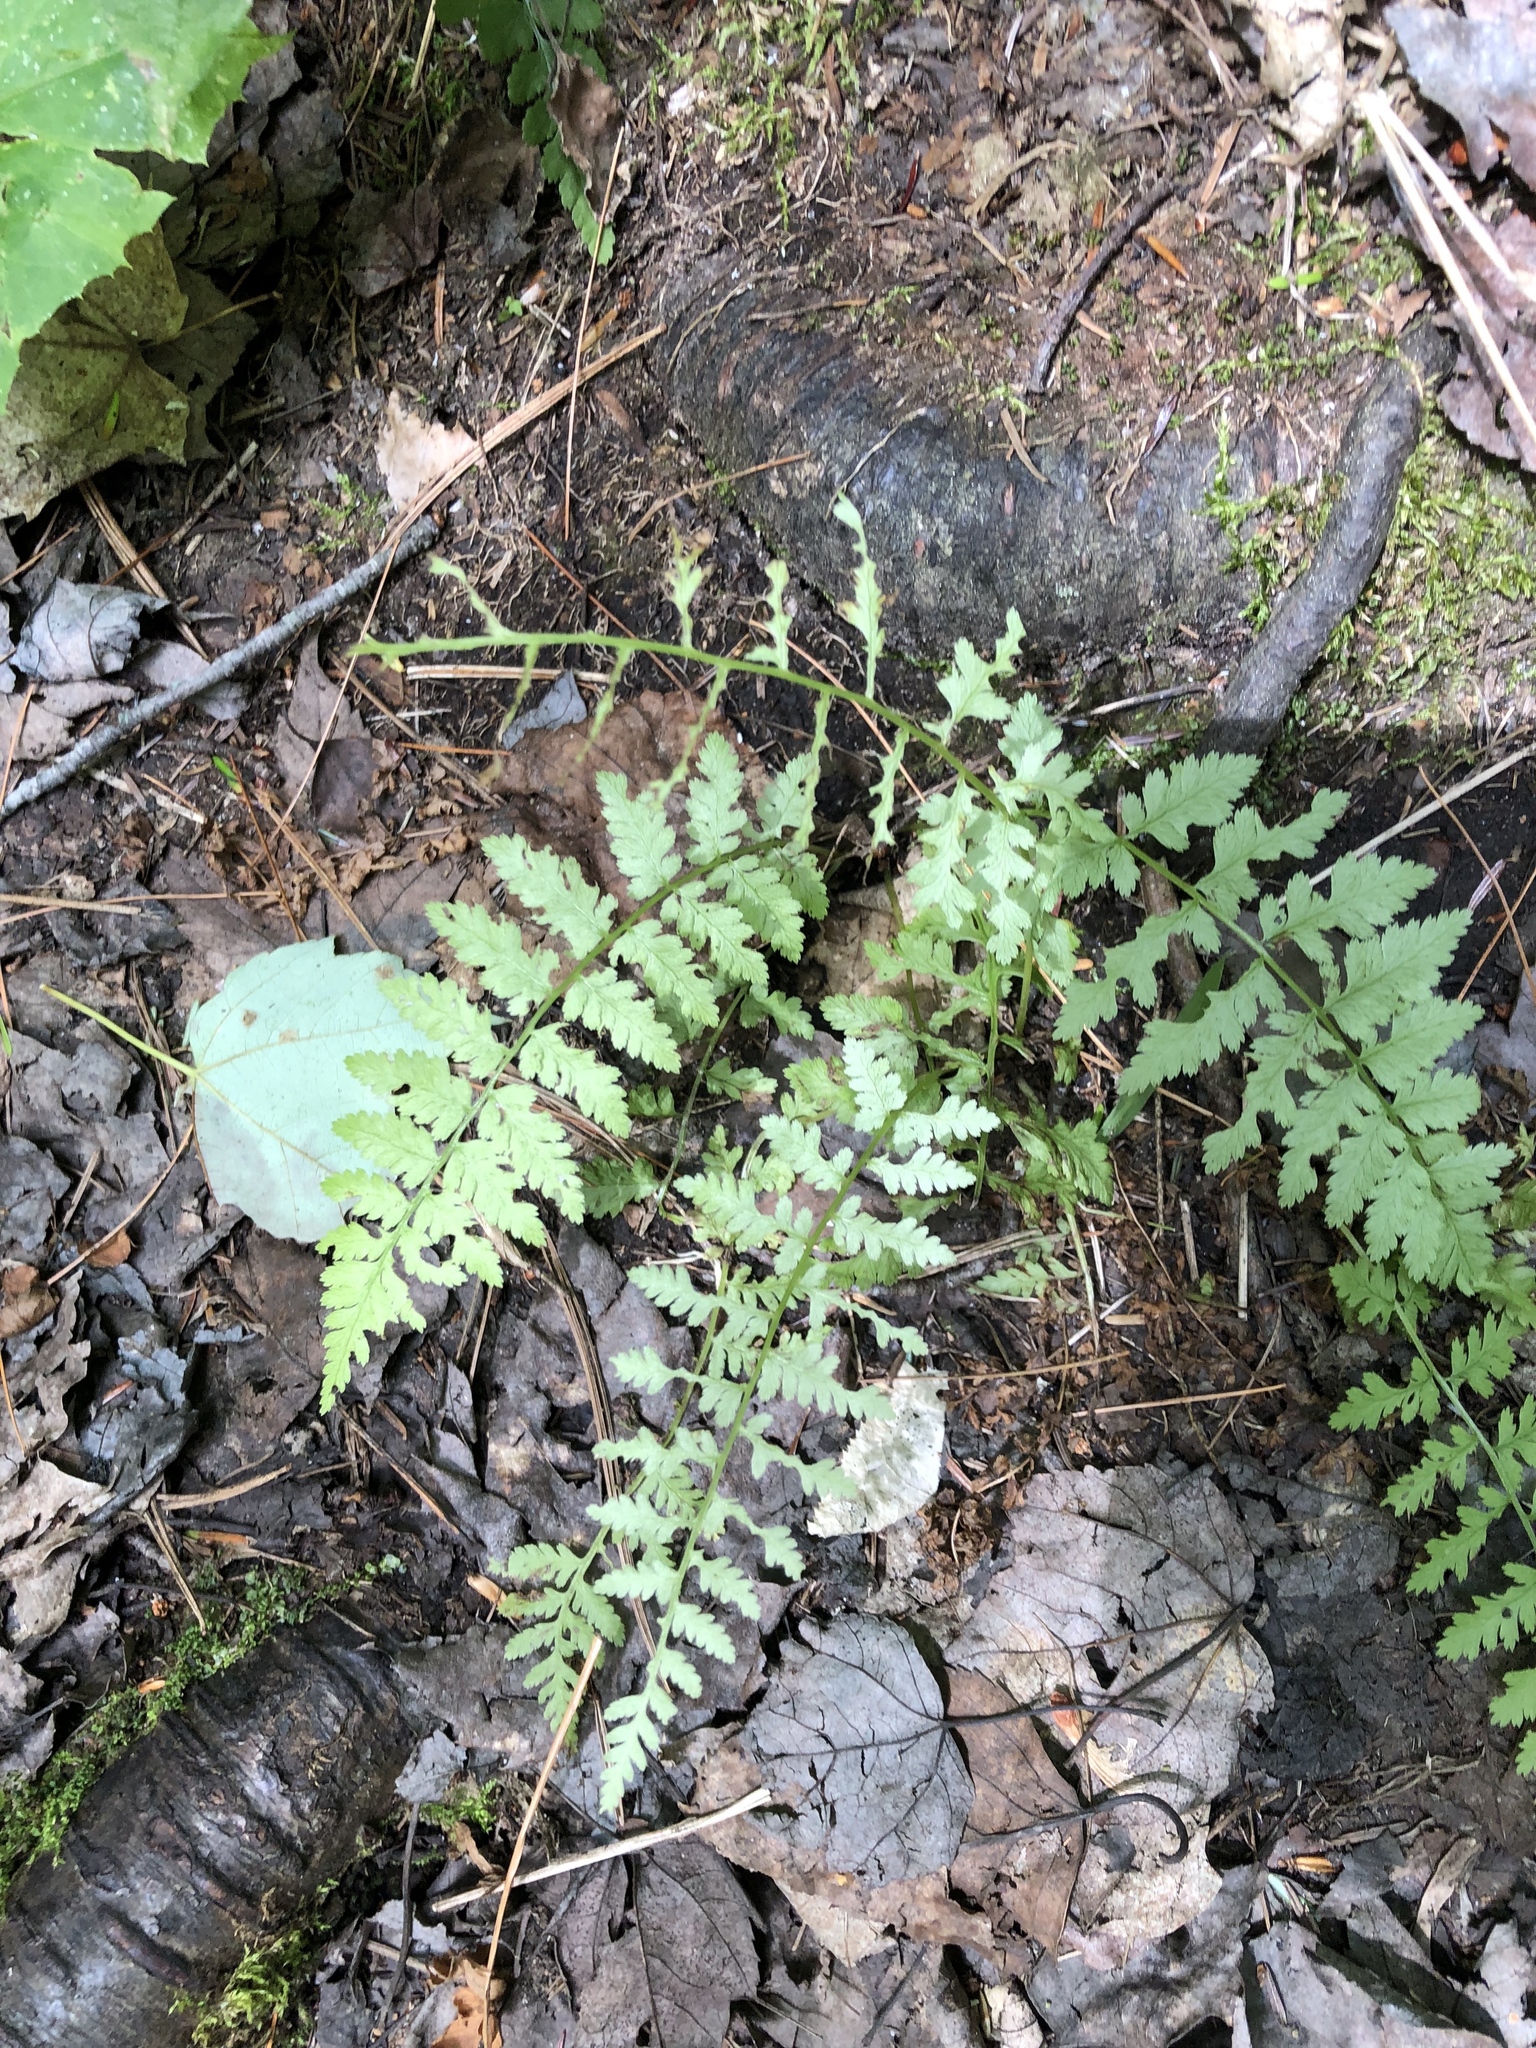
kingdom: Plantae
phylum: Tracheophyta
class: Polypodiopsida
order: Polypodiales
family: Athyriaceae
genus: Athyrium
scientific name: Athyrium angustum
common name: Northern lady fern
